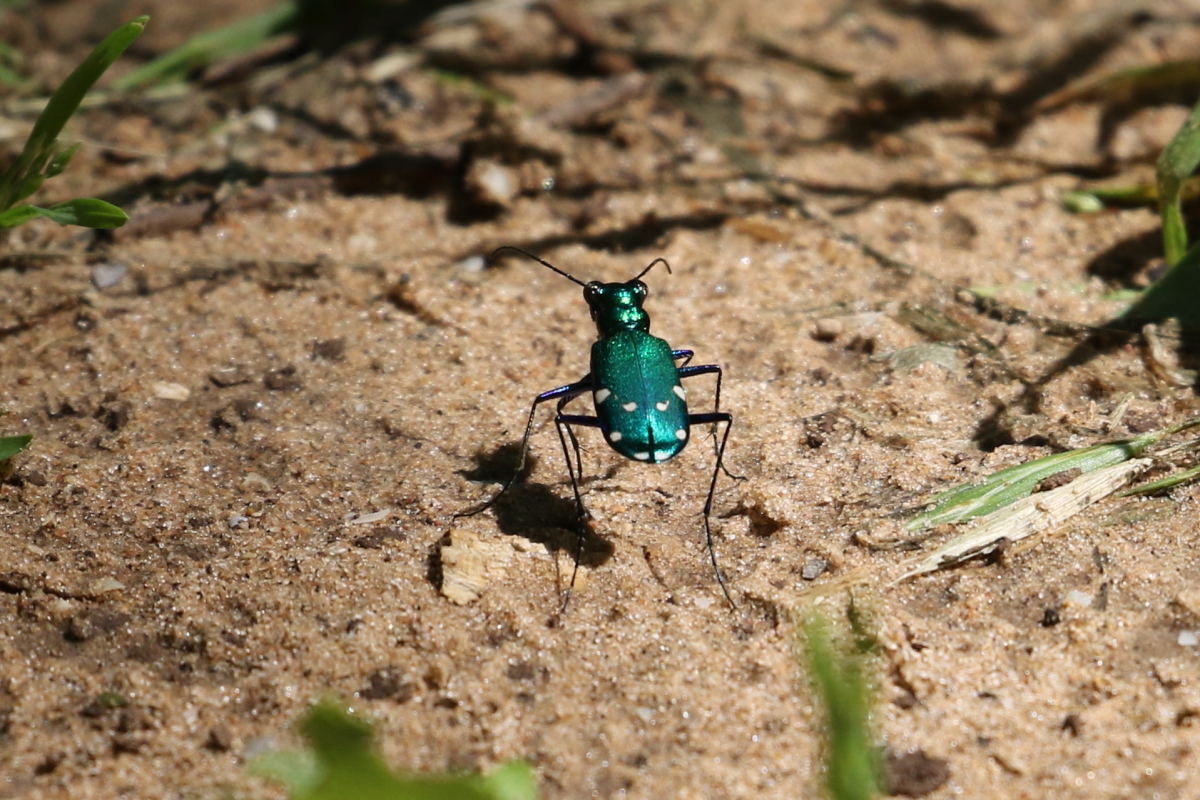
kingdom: Animalia
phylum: Arthropoda
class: Insecta
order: Coleoptera
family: Carabidae
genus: Cicindela
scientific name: Cicindela sexguttata
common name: Six-spotted tiger beetle
